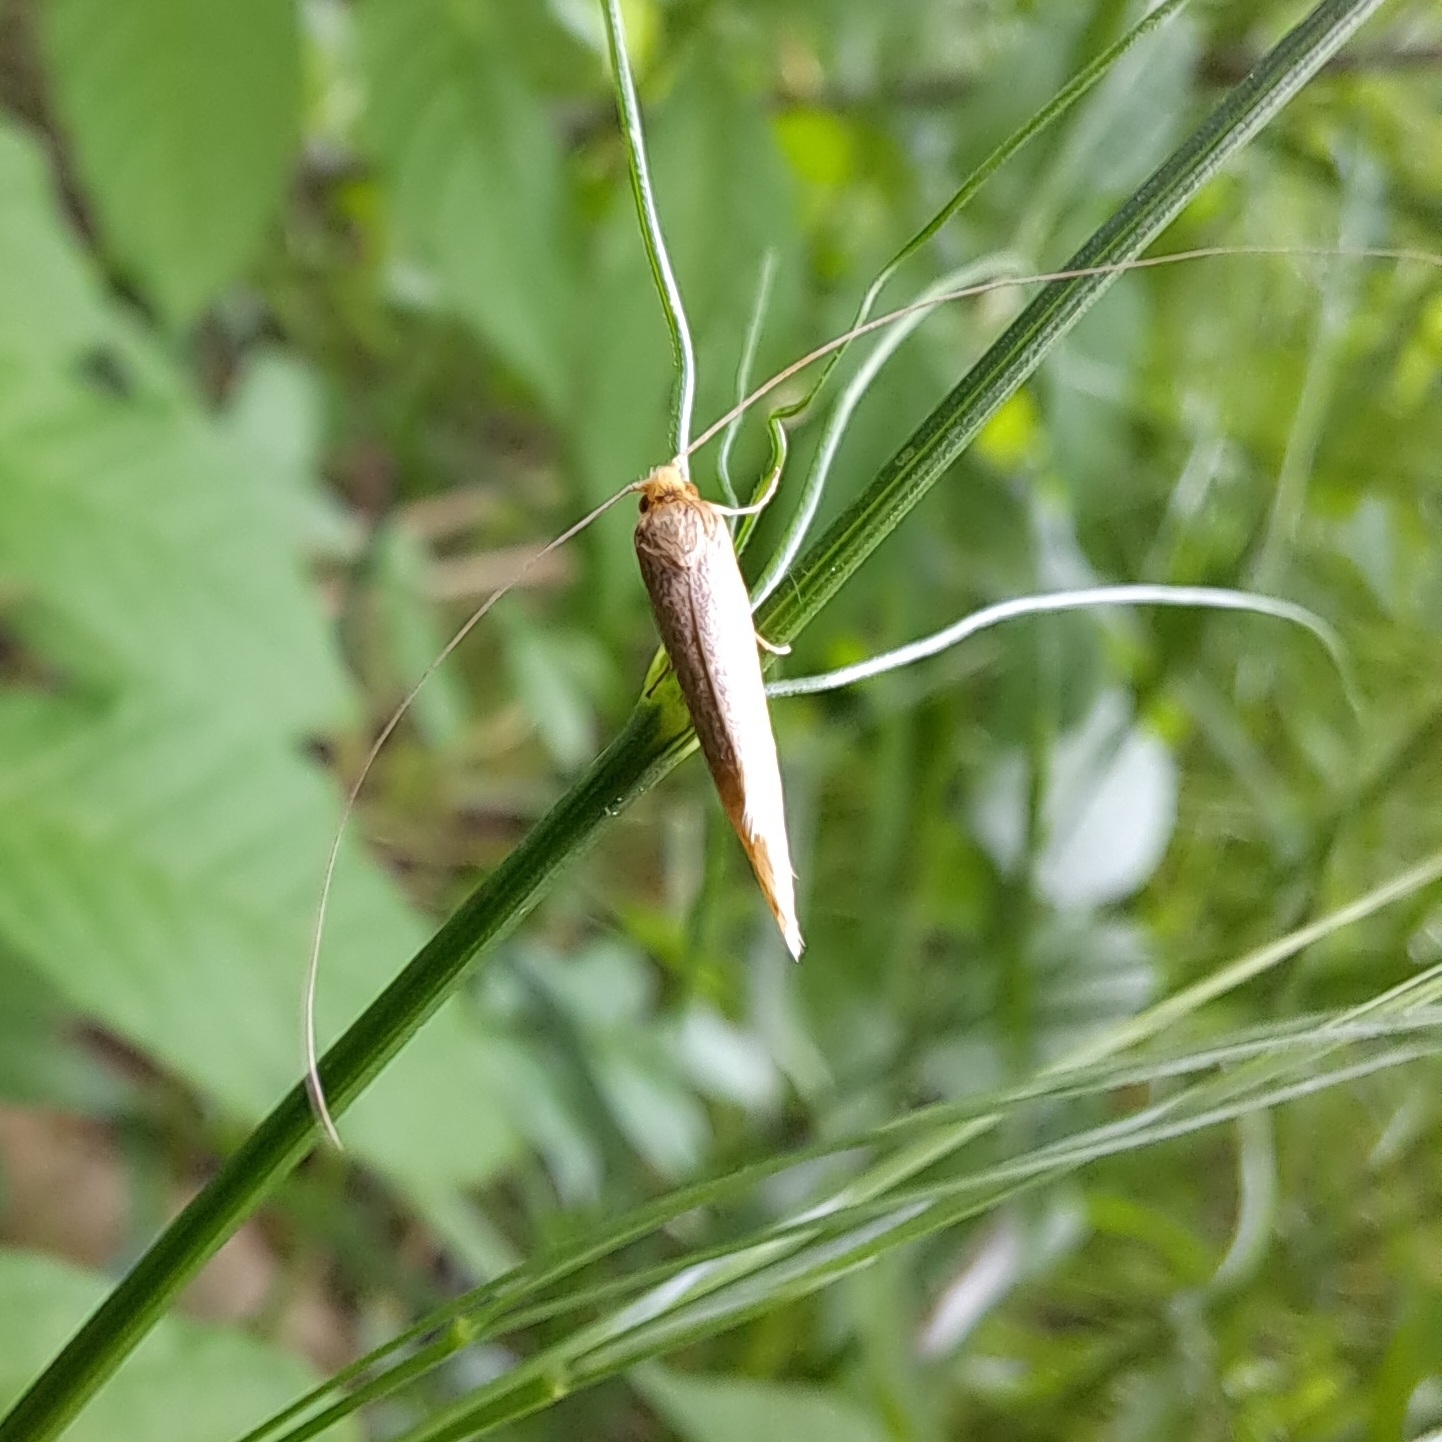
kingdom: Animalia
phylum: Arthropoda
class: Insecta
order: Lepidoptera
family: Adelidae
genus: Nematopogon
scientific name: Nematopogon swammerdamella
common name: Large long-horn
